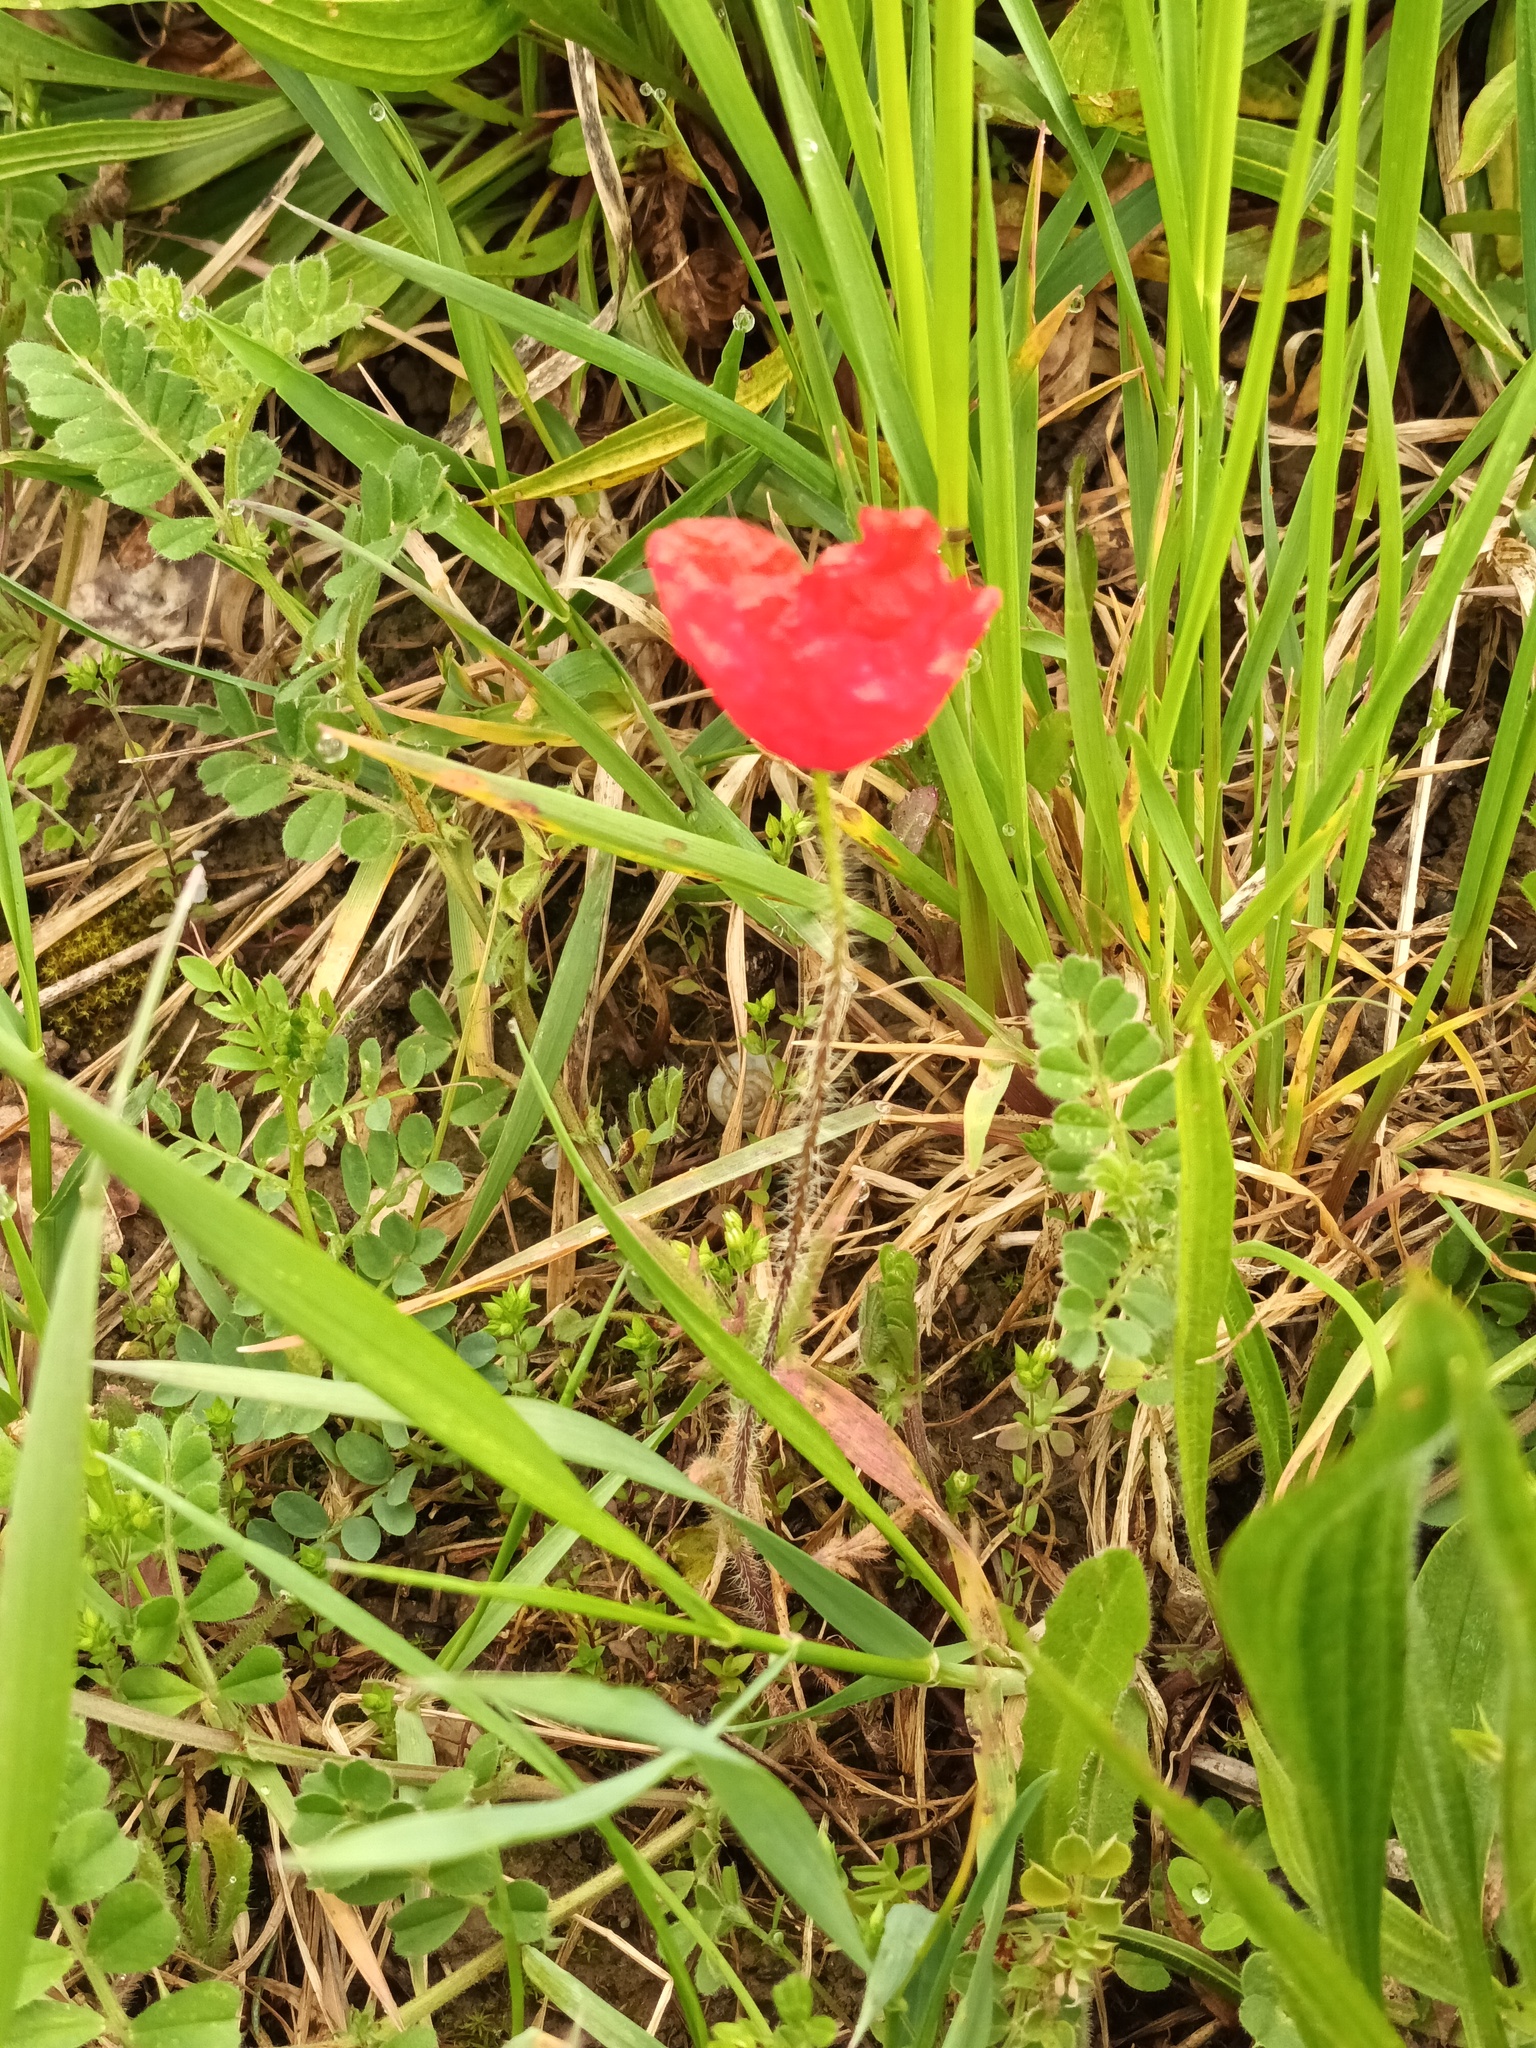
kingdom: Plantae
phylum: Tracheophyta
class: Magnoliopsida
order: Ranunculales
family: Papaveraceae
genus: Papaver
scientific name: Papaver rhoeas
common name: Corn poppy
